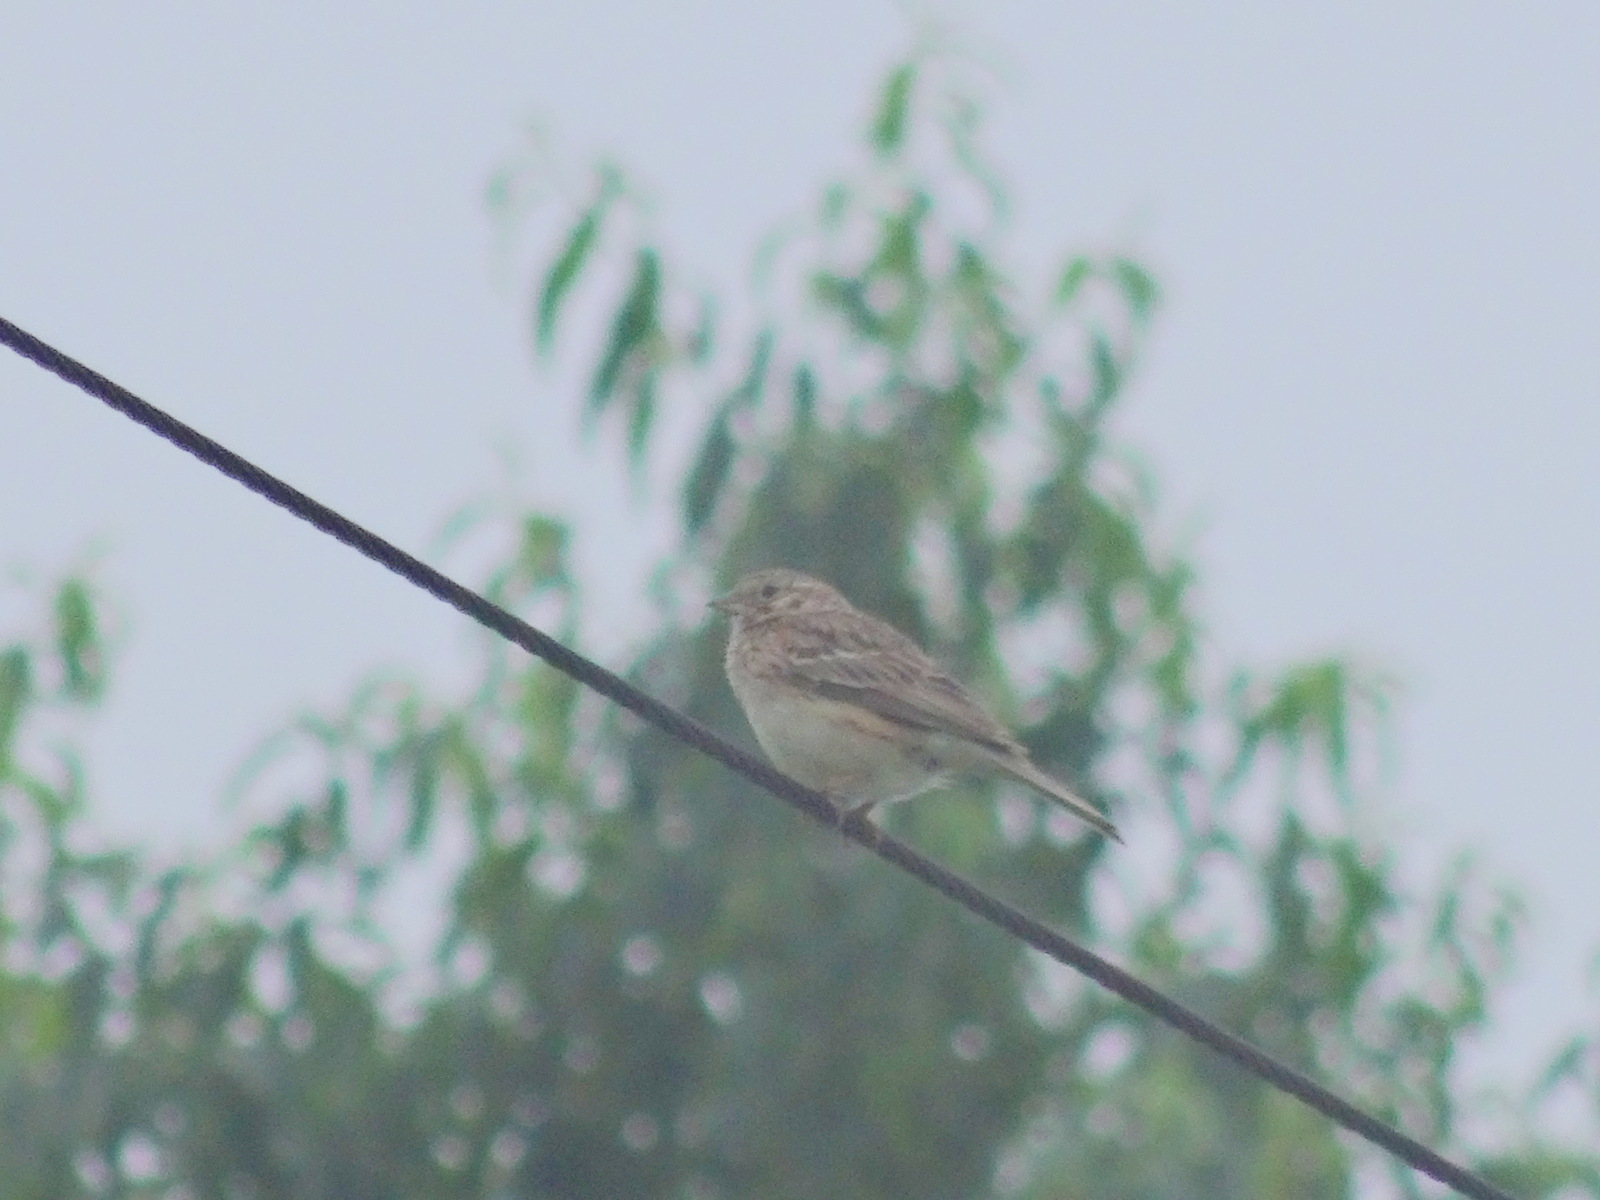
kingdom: Animalia
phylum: Chordata
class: Aves
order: Passeriformes
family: Passerellidae
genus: Pooecetes
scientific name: Pooecetes gramineus
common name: Vesper sparrow
